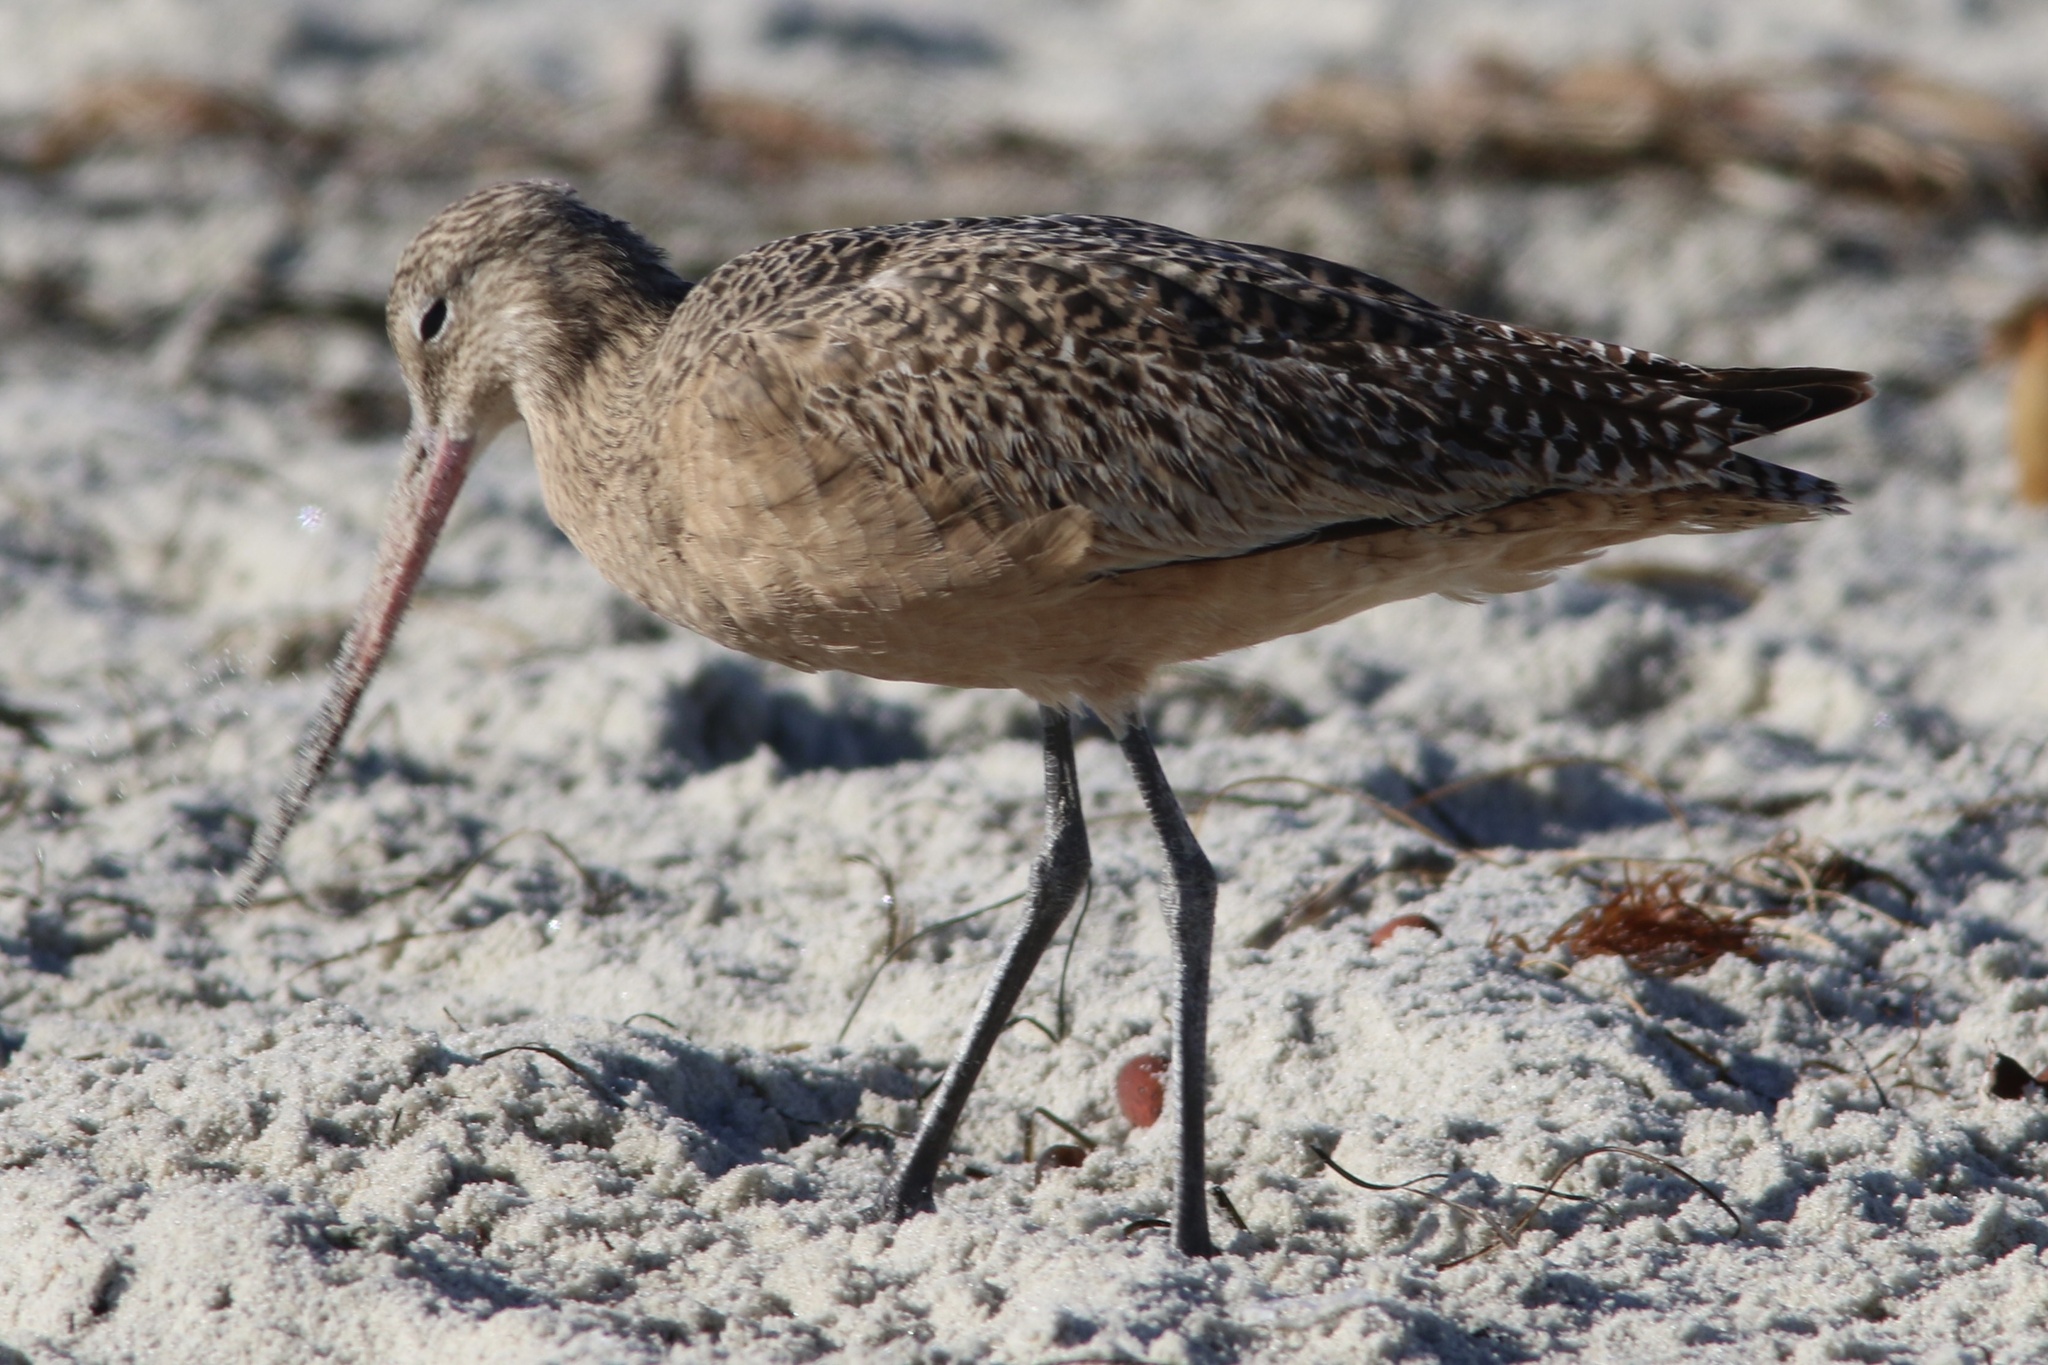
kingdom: Animalia
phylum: Chordata
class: Aves
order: Charadriiformes
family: Scolopacidae
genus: Limosa
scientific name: Limosa fedoa
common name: Marbled godwit
